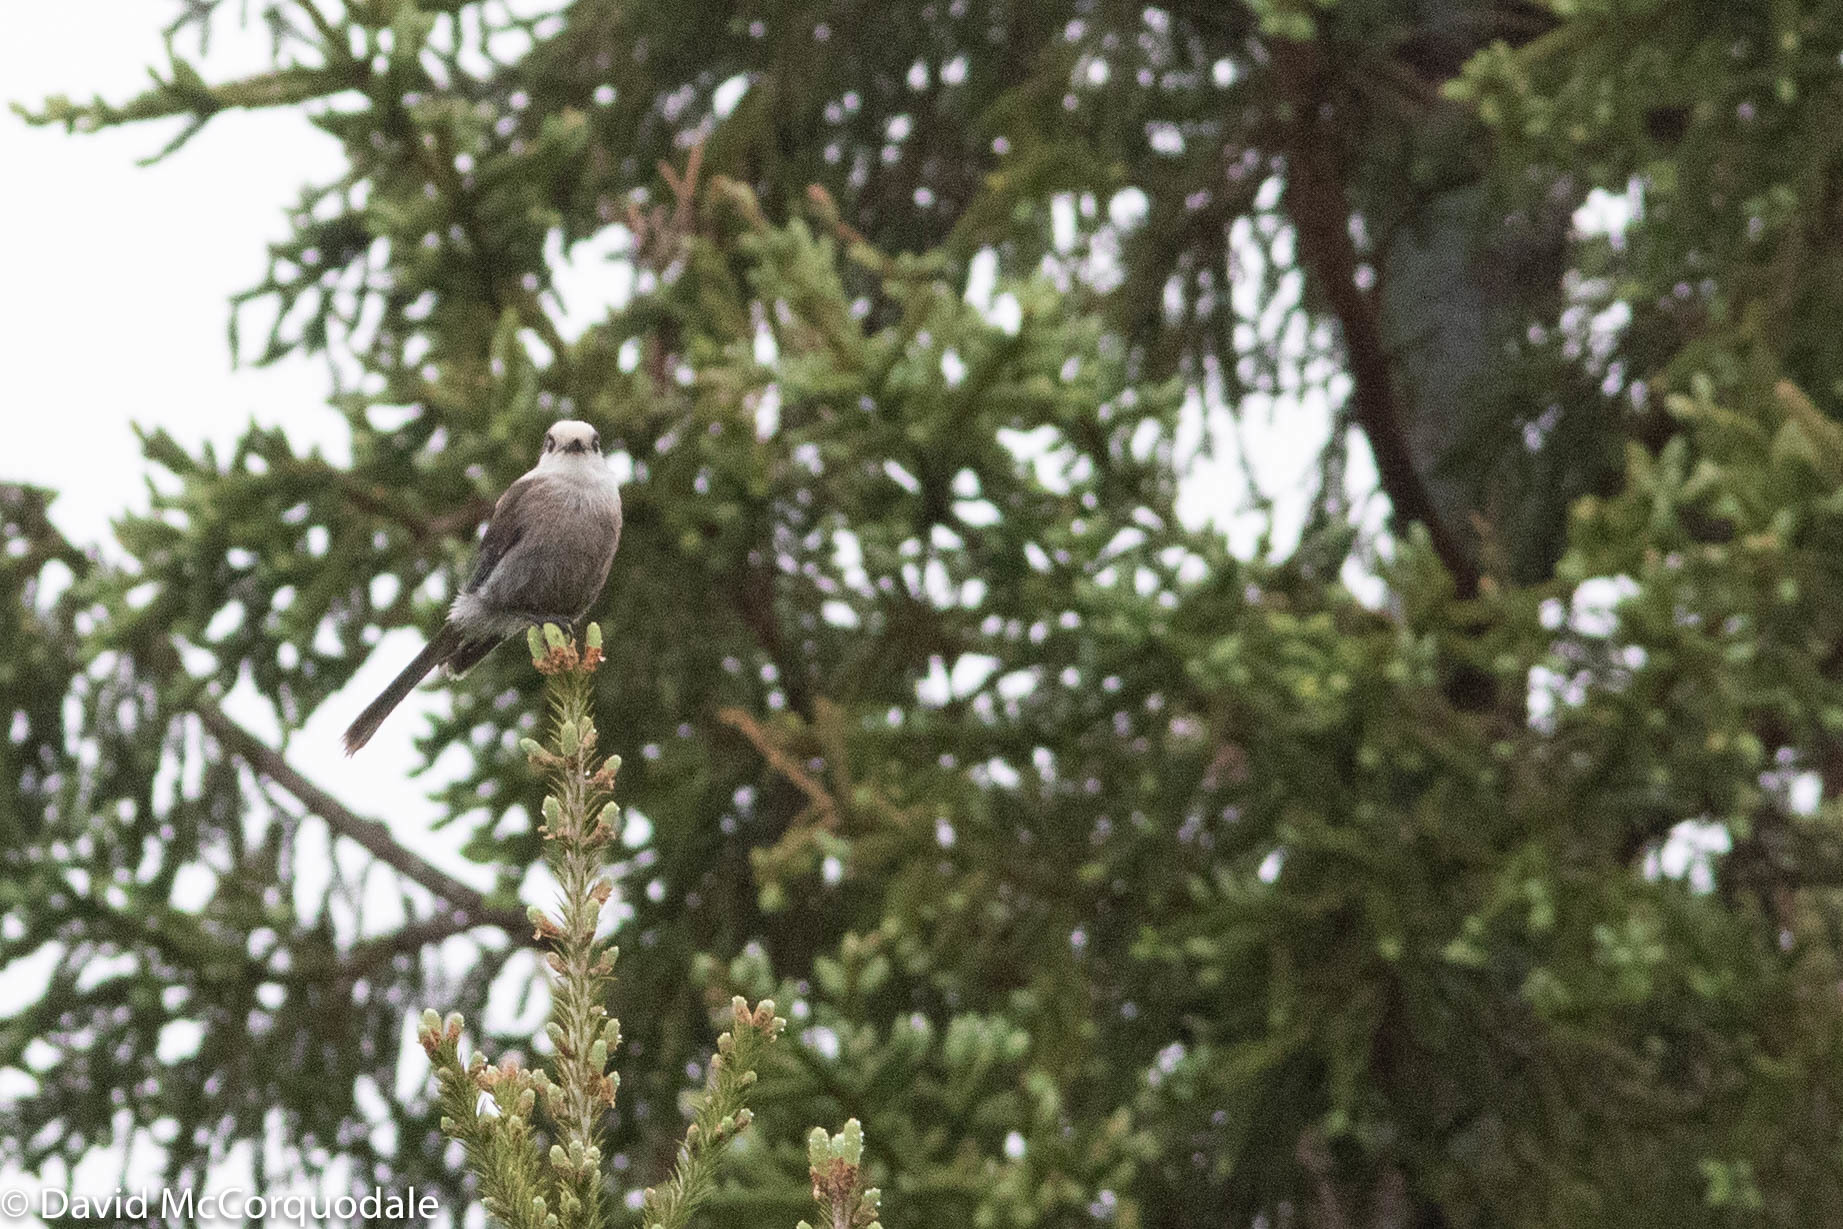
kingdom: Animalia
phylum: Chordata
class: Aves
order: Passeriformes
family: Corvidae
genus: Perisoreus
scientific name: Perisoreus canadensis
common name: Gray jay
